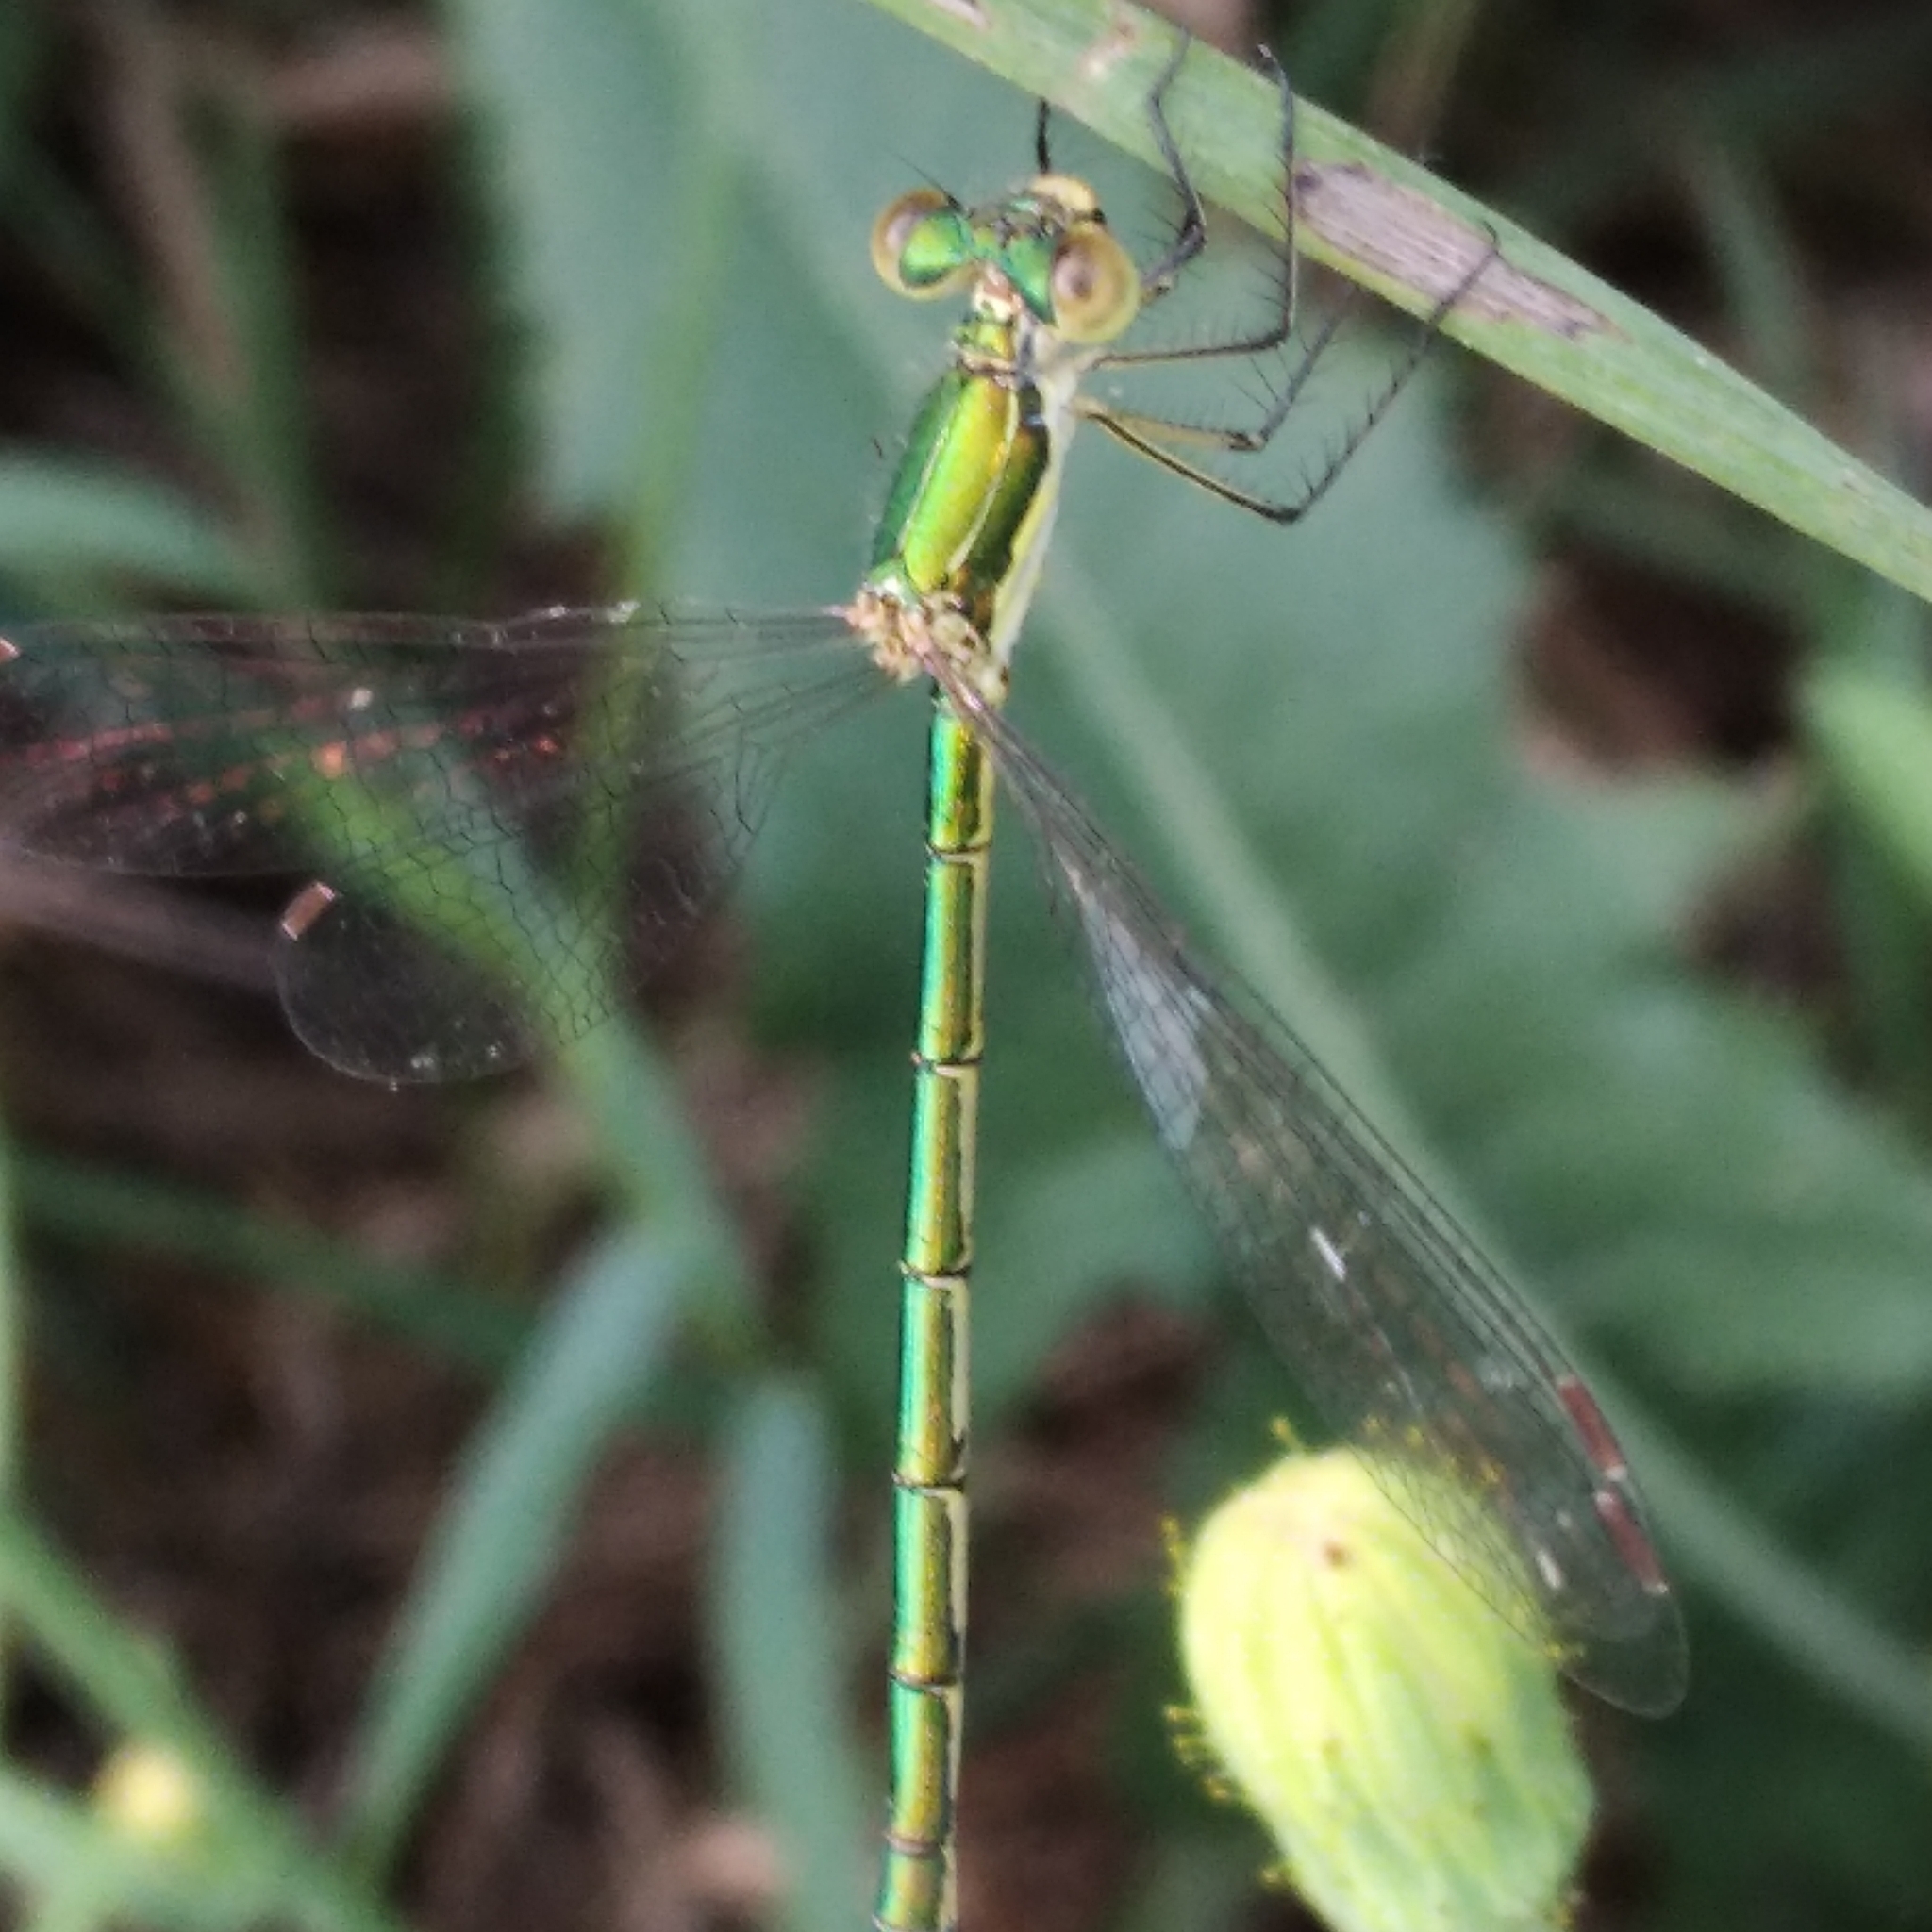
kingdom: Animalia
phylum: Arthropoda
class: Insecta
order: Odonata
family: Lestidae
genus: Lestes
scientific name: Lestes virens
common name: Small emerald spreadwing
